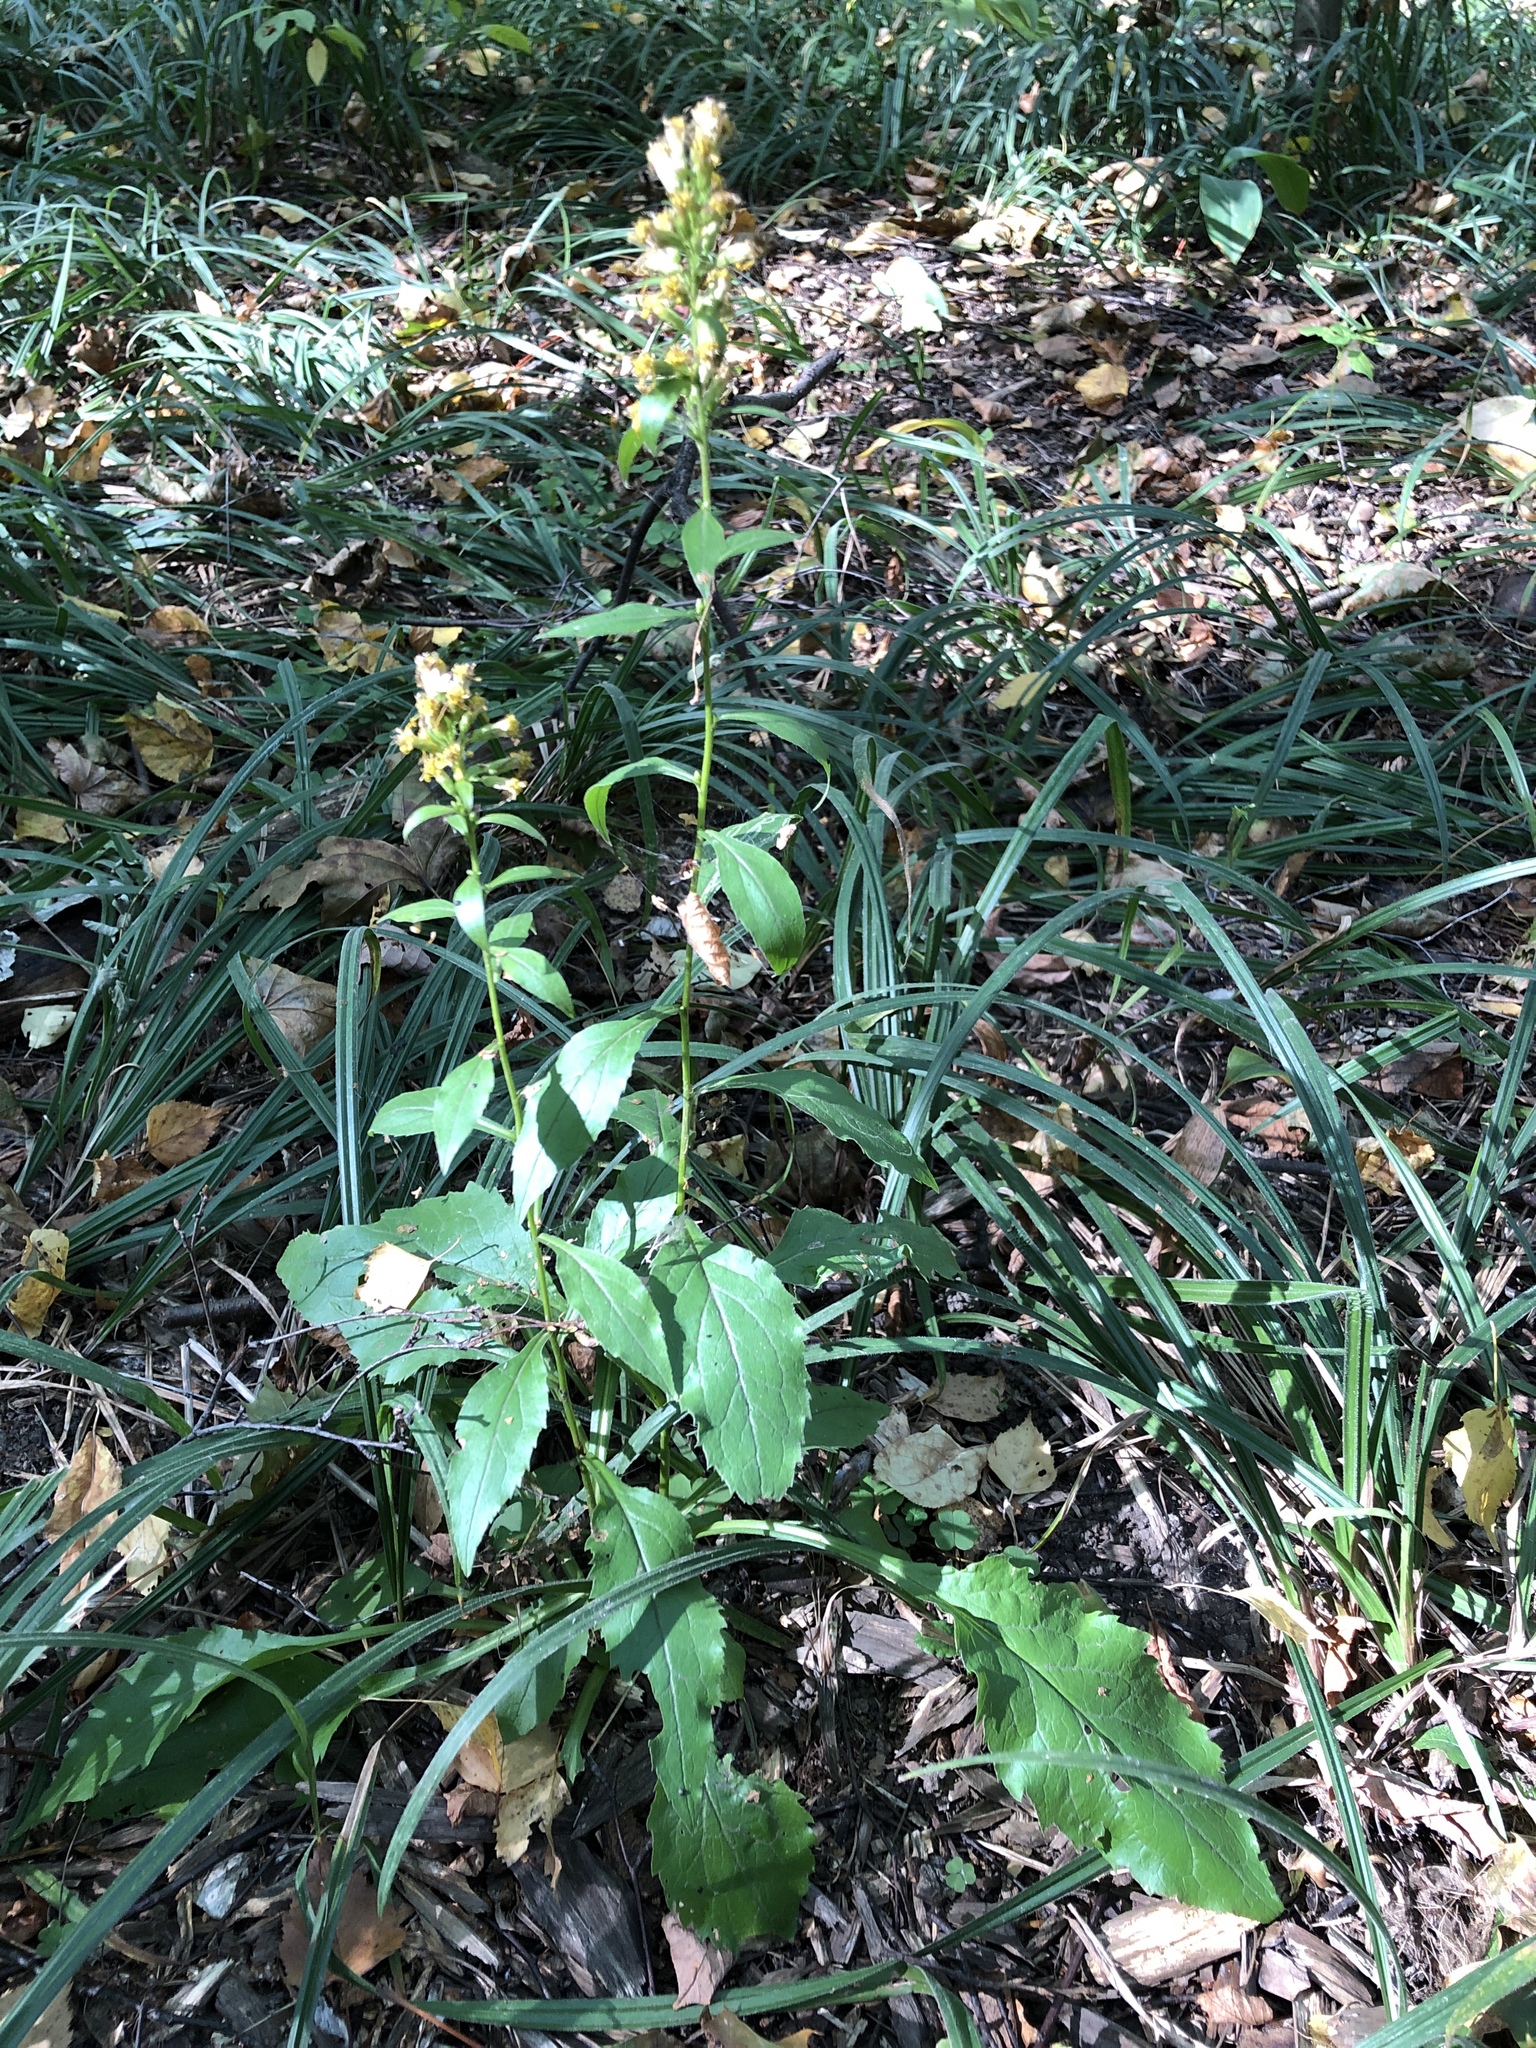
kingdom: Plantae
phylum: Tracheophyta
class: Magnoliopsida
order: Asterales
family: Asteraceae
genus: Solidago
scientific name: Solidago virgaurea
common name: Goldenrod
